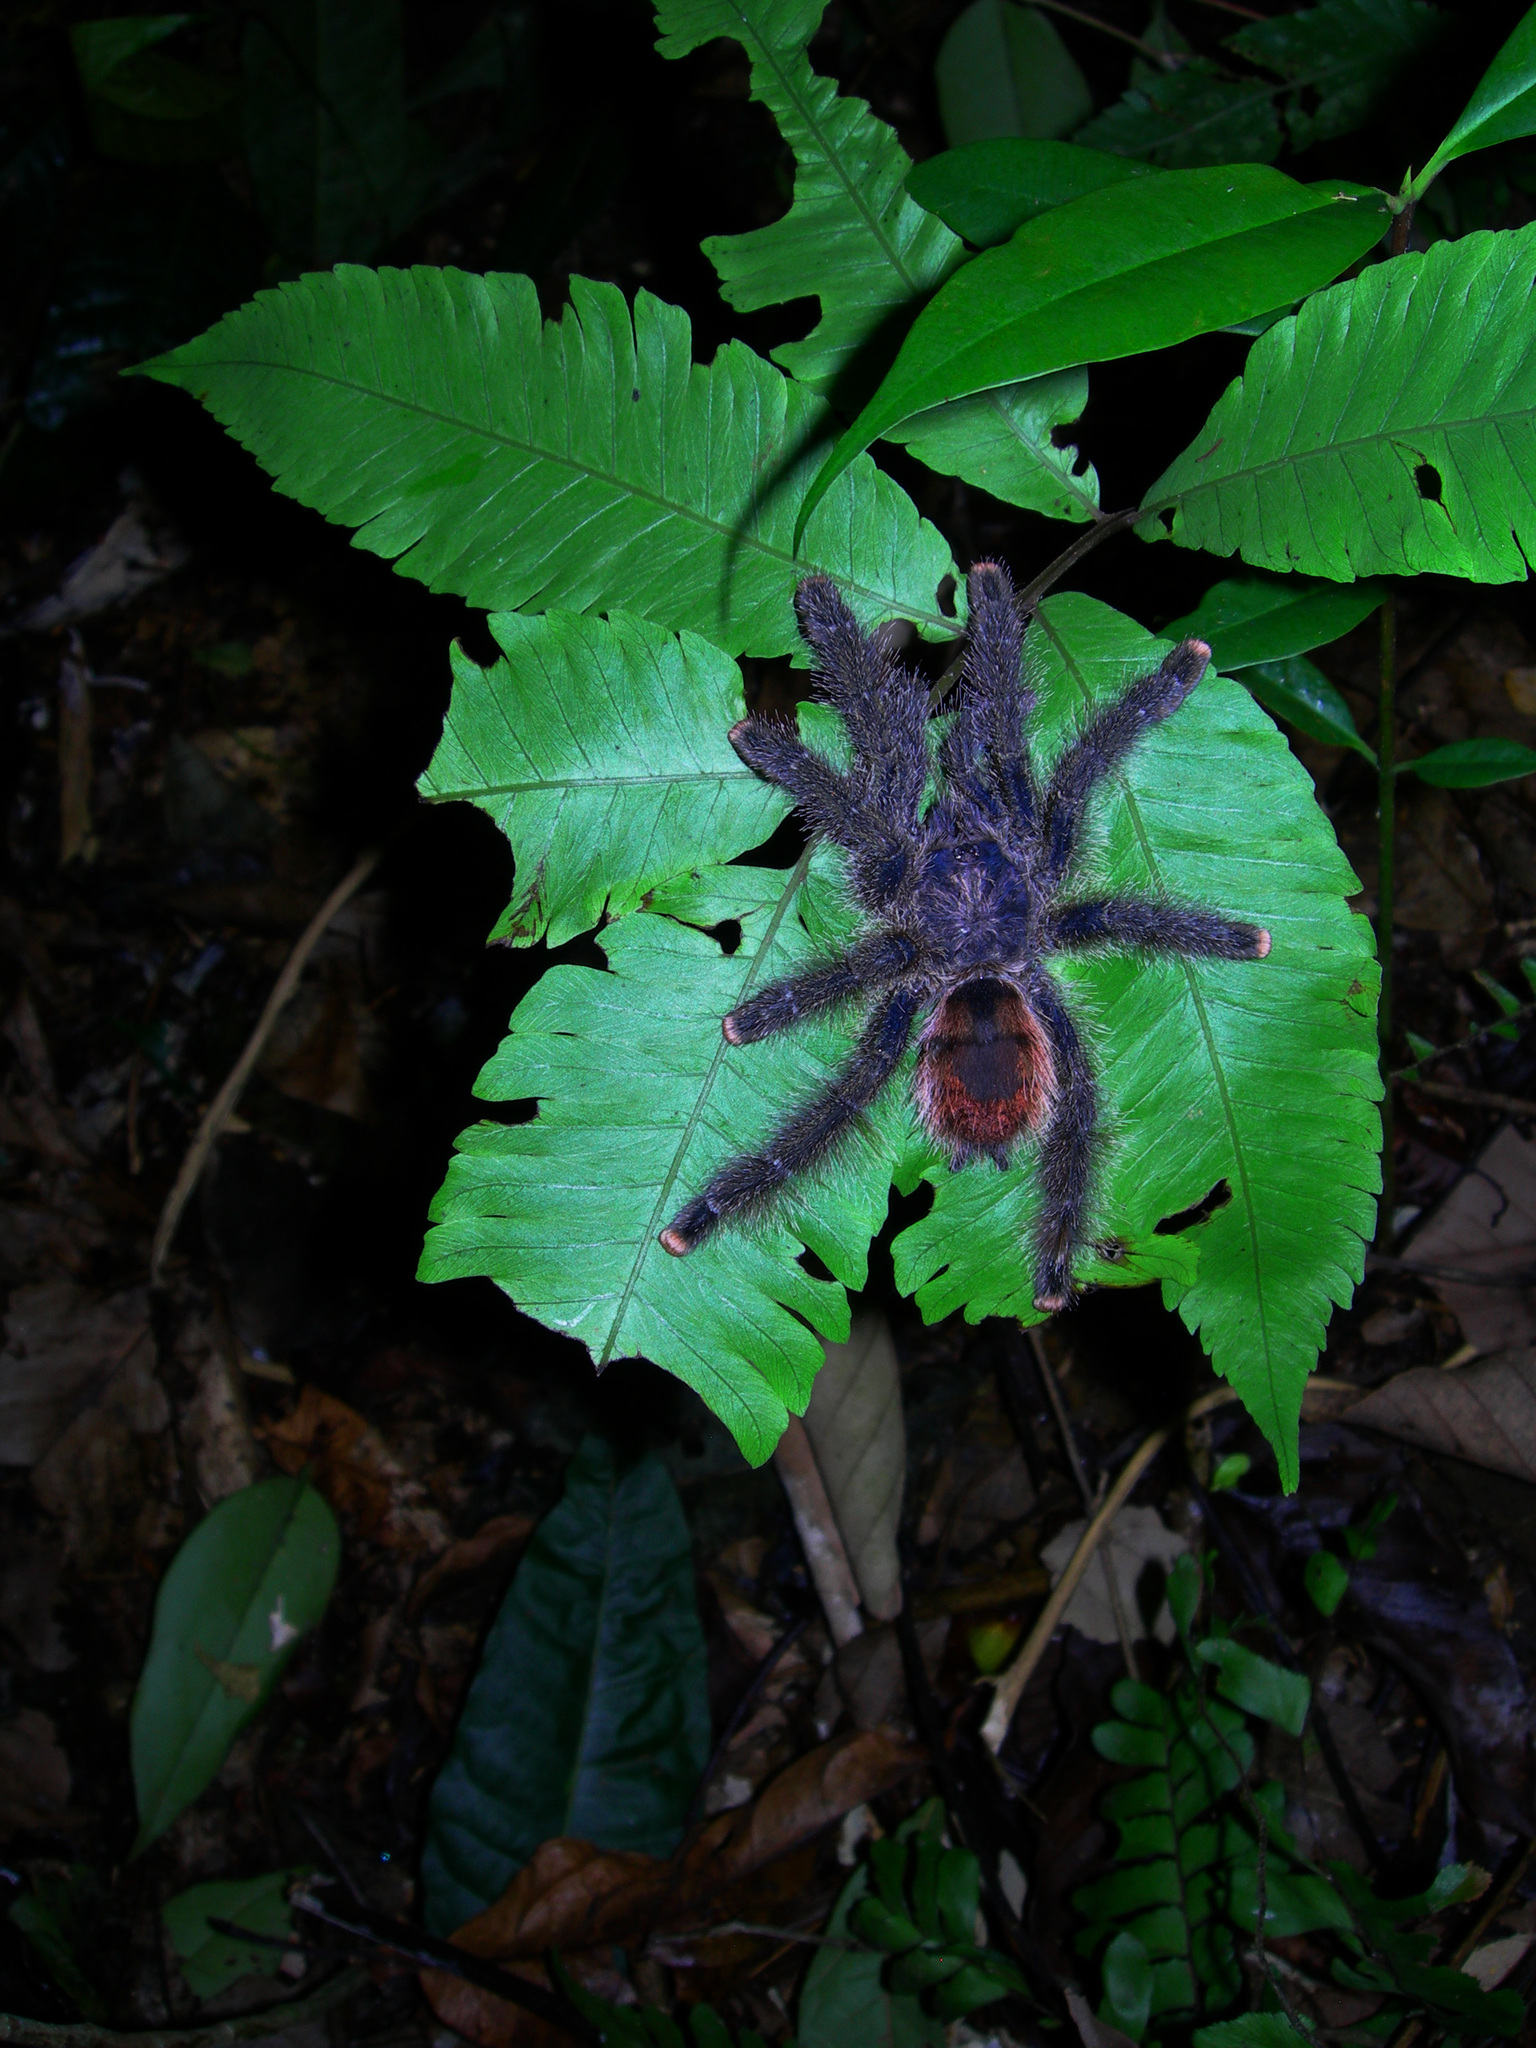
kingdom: Animalia
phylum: Arthropoda
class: Arachnida
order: Araneae
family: Theraphosidae
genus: Avicularia
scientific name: Avicularia juruensis
